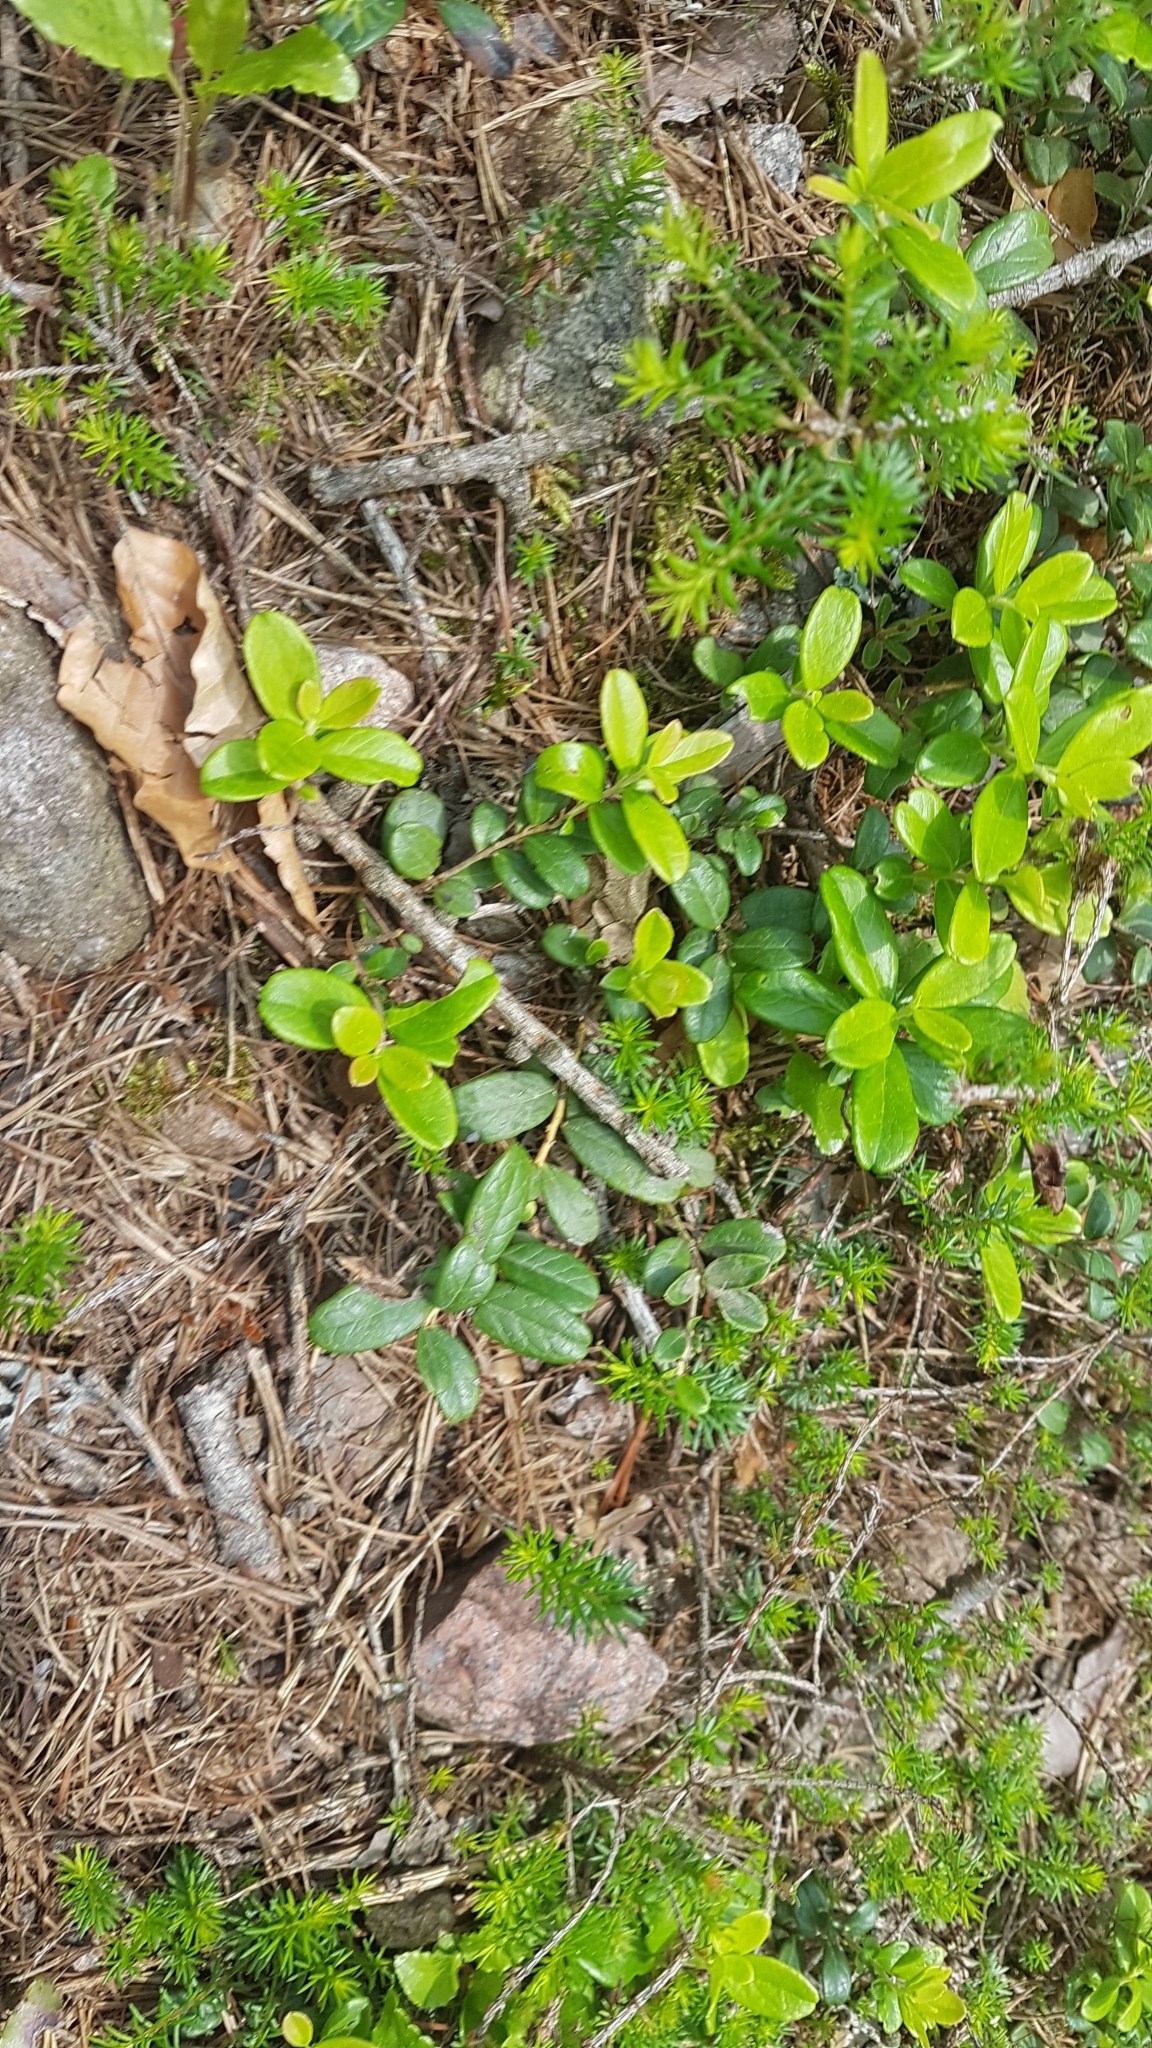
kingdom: Plantae
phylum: Tracheophyta
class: Magnoliopsida
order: Ericales
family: Ericaceae
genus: Vaccinium
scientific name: Vaccinium myrtillus
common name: Bilberry
